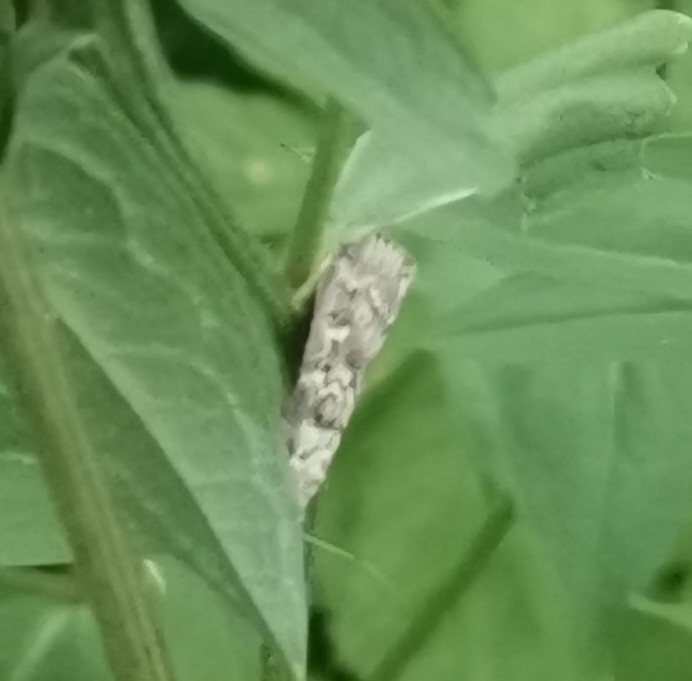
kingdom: Animalia
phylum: Arthropoda
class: Insecta
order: Lepidoptera
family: Pyralidae
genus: Dioryctria
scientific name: Dioryctria abietella
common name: Dark pine knot-horn
